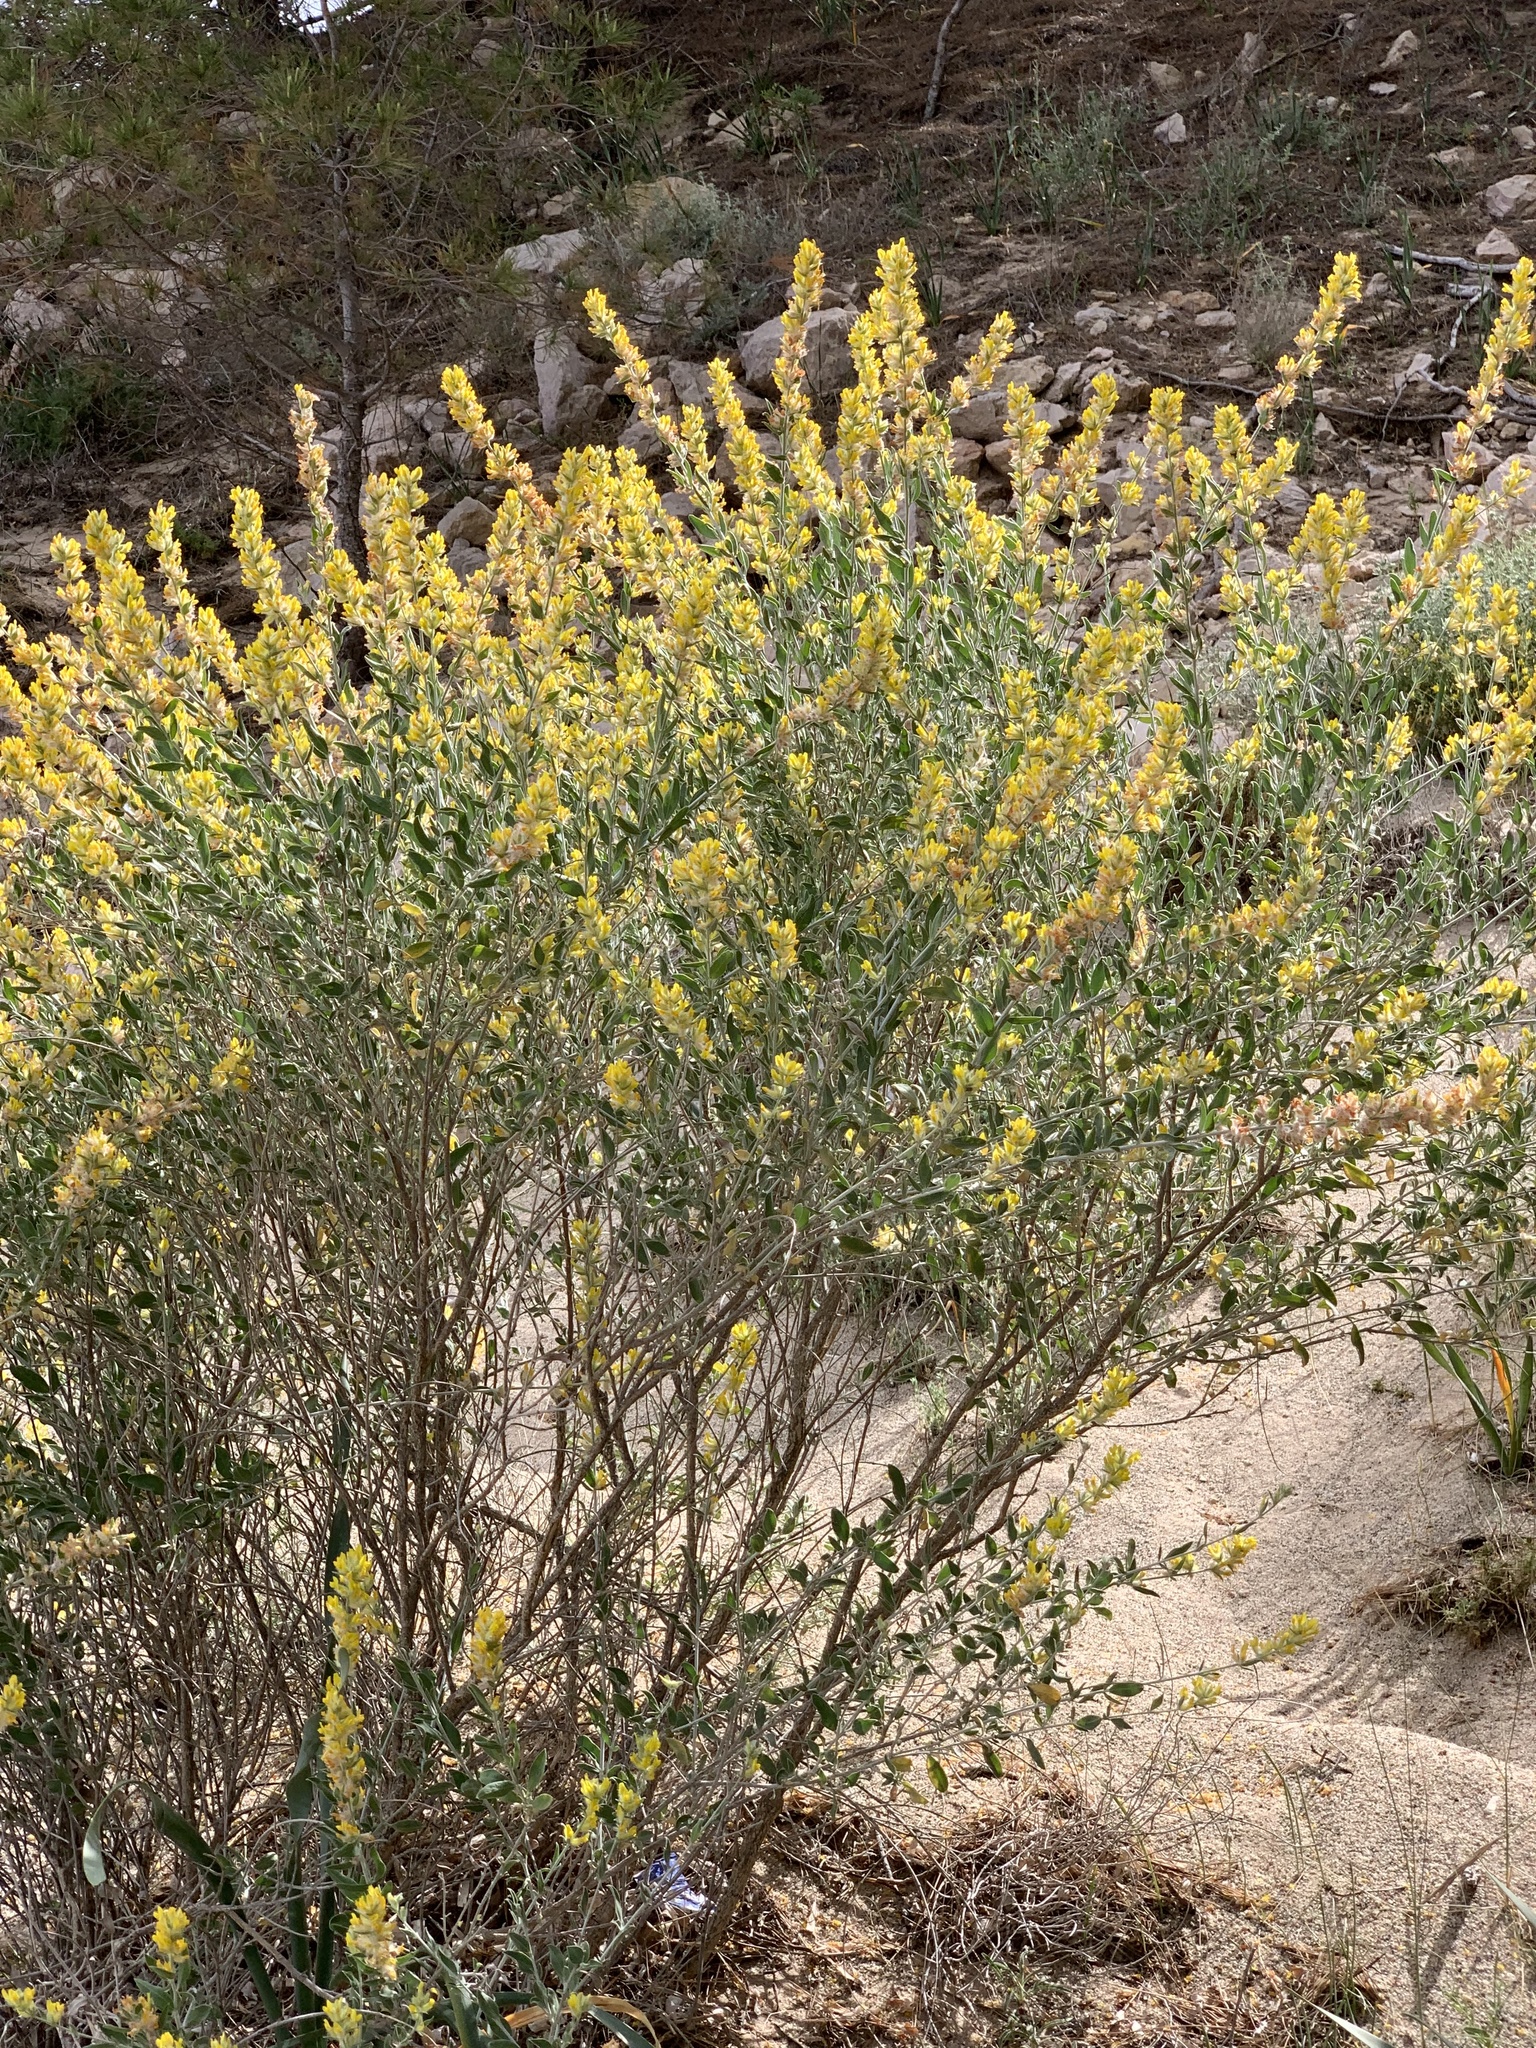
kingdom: Plantae
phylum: Tracheophyta
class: Magnoliopsida
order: Fabales
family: Fabaceae
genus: Anthyllis
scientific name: Anthyllis cytisoides
